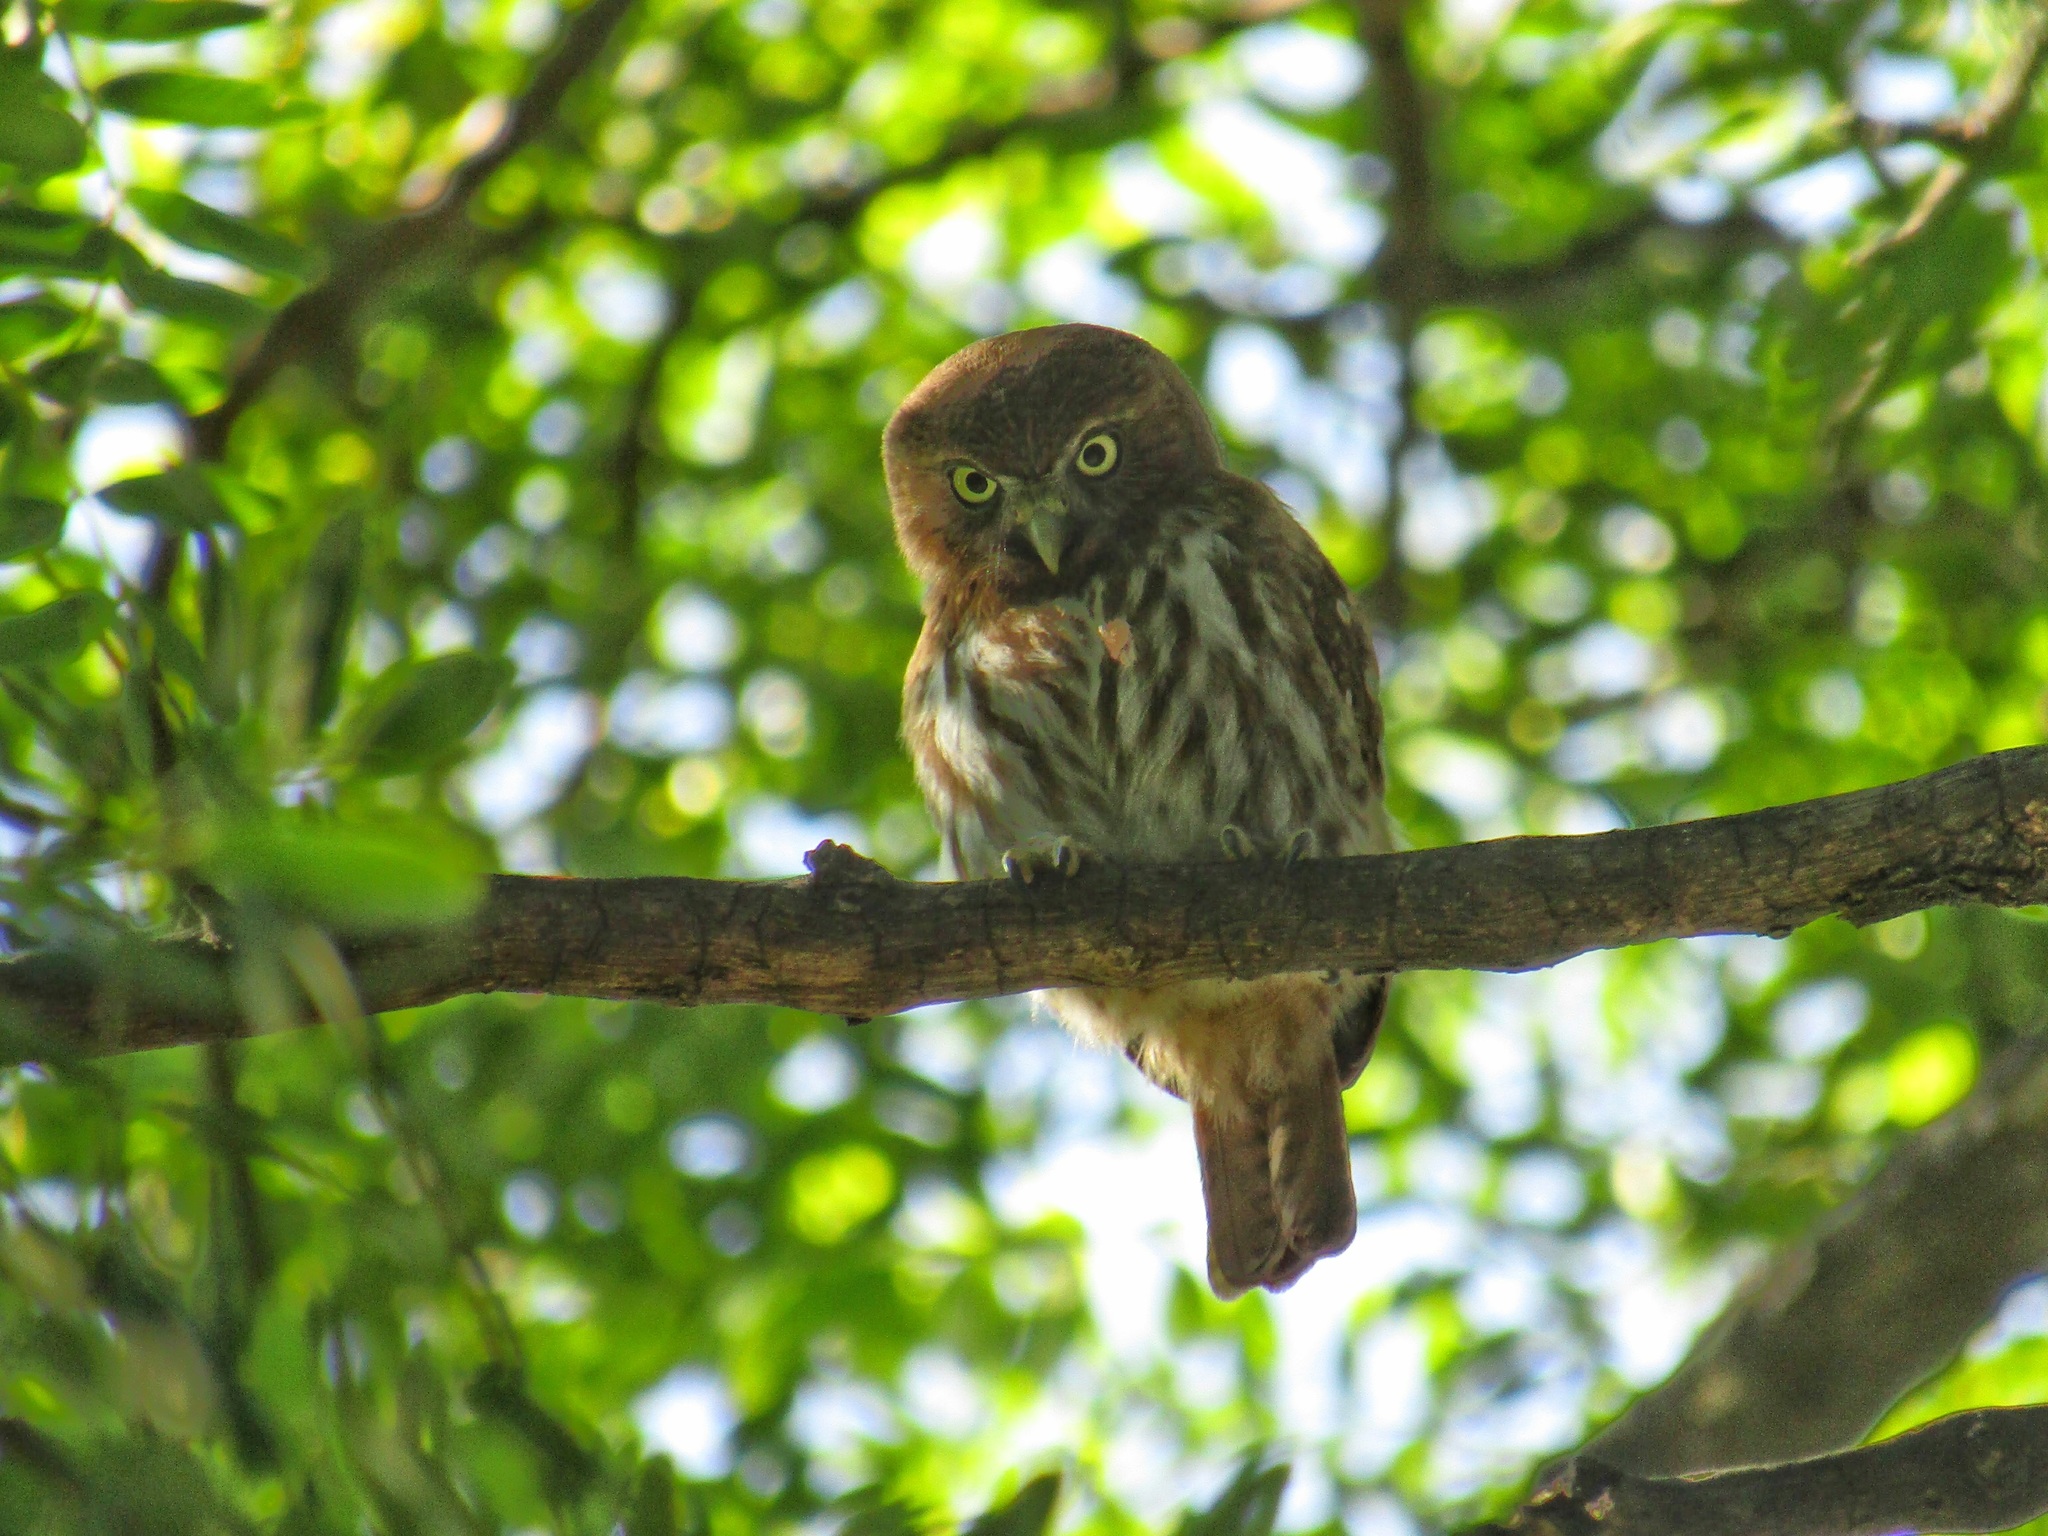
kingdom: Animalia
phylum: Chordata
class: Aves
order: Strigiformes
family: Strigidae
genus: Glaucidium
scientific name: Glaucidium brasilianum
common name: Ferruginous pygmy-owl
